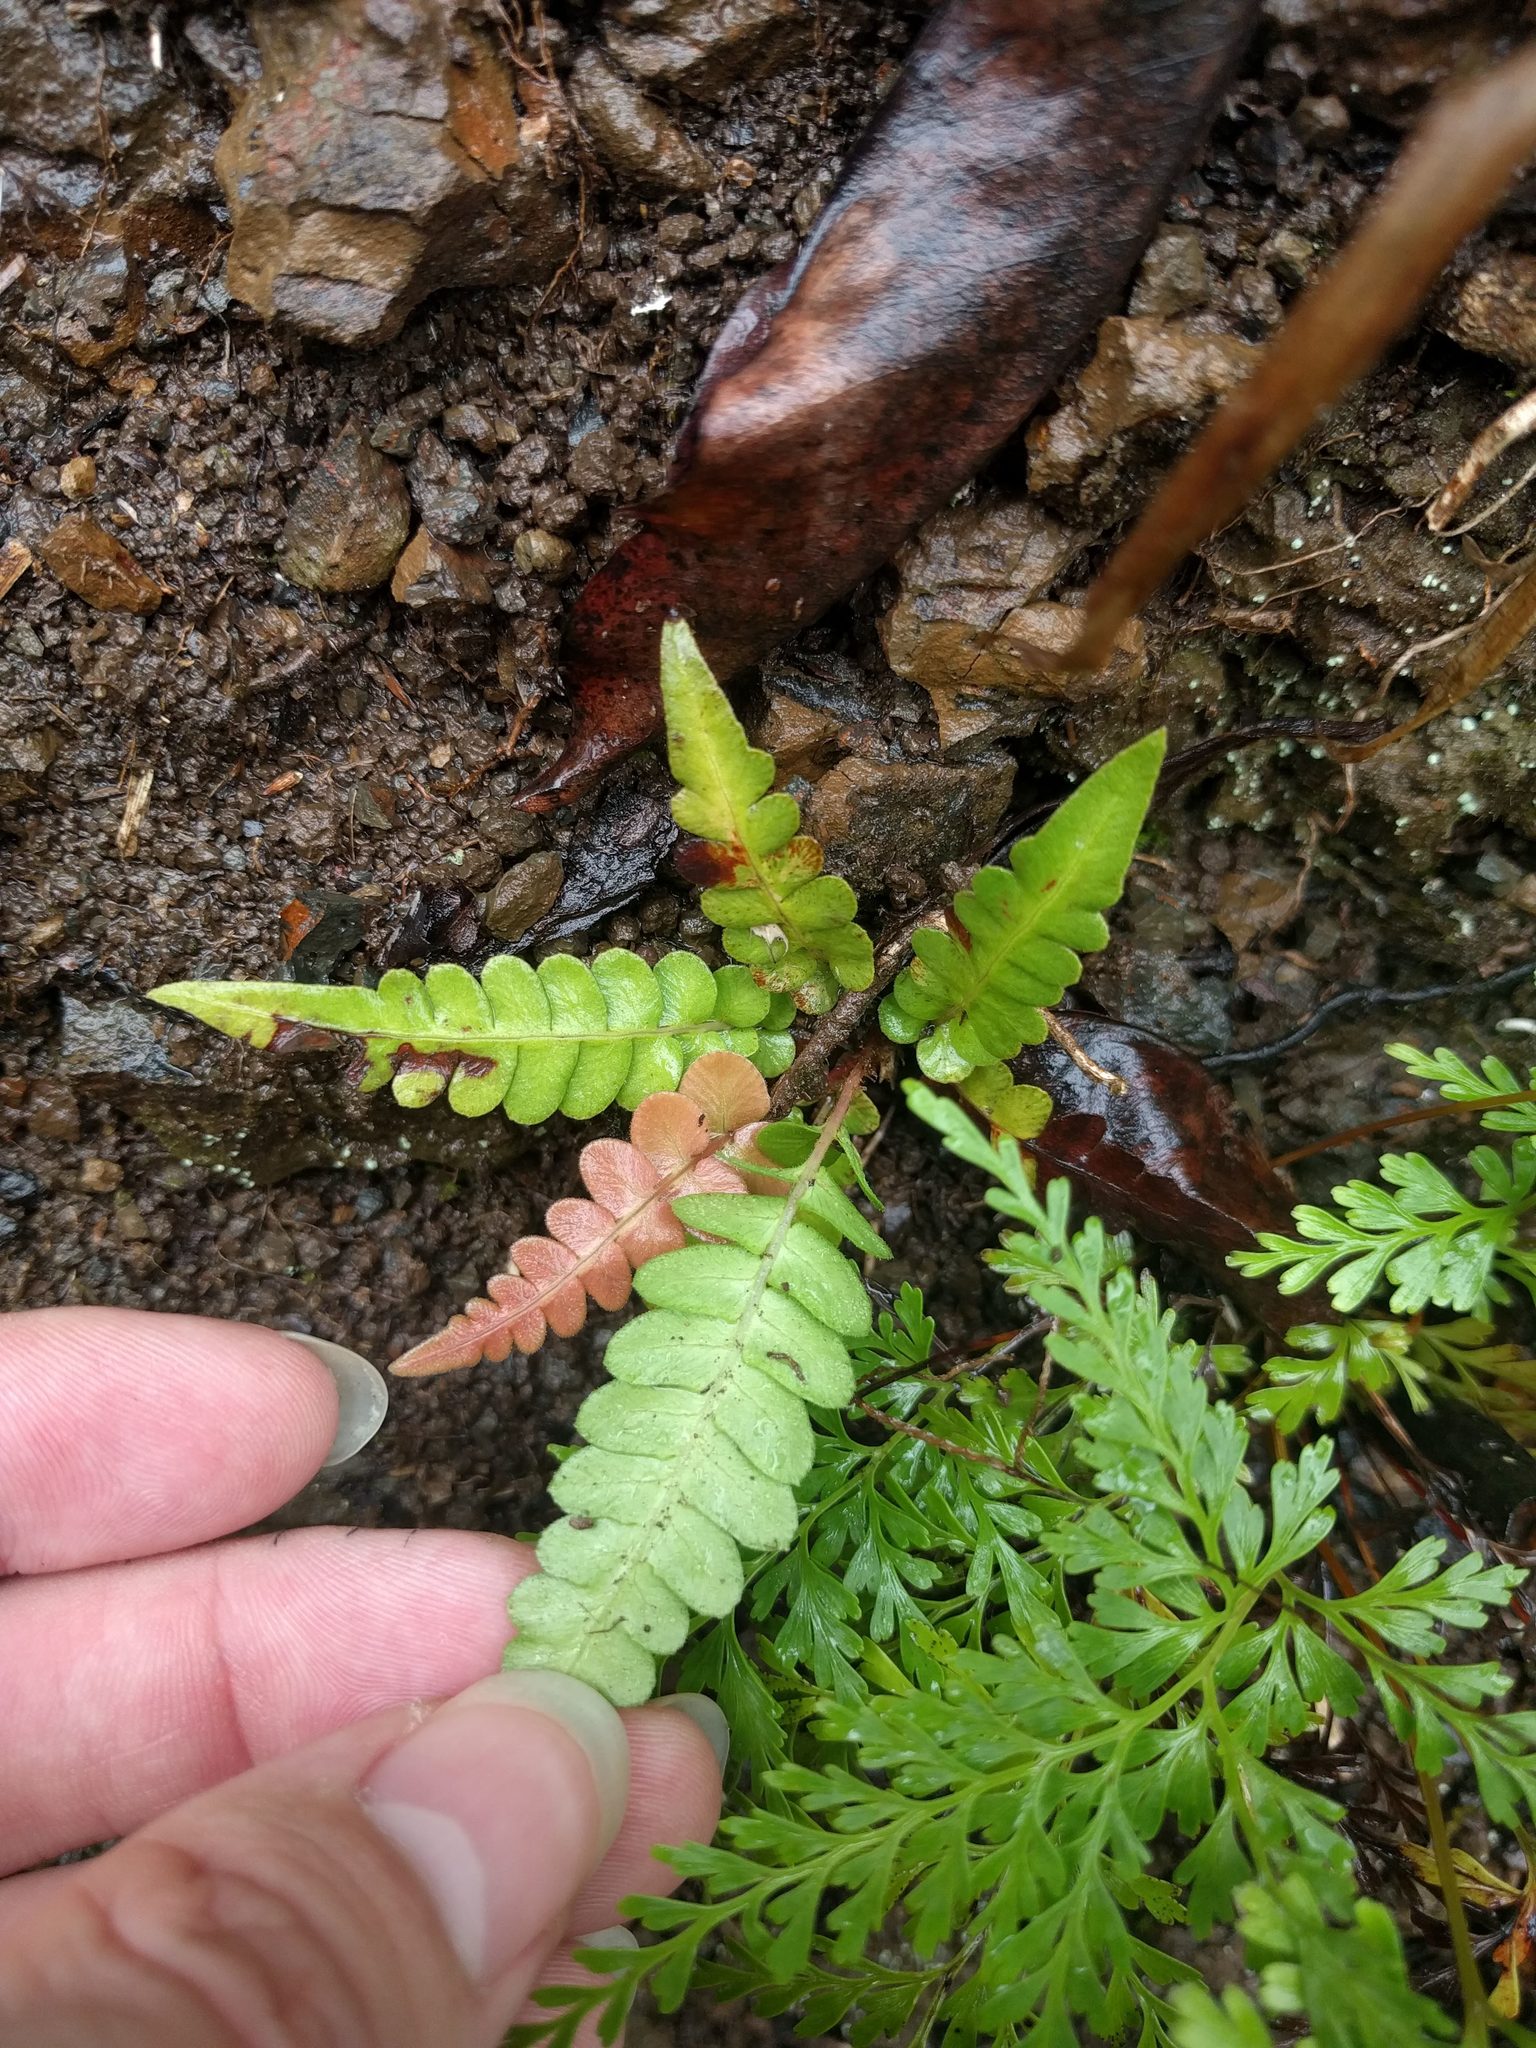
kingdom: Plantae
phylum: Tracheophyta
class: Polypodiopsida
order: Polypodiales
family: Blechnaceae
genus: Blechnum
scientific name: Blechnum appendiculatum
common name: Palm fern
